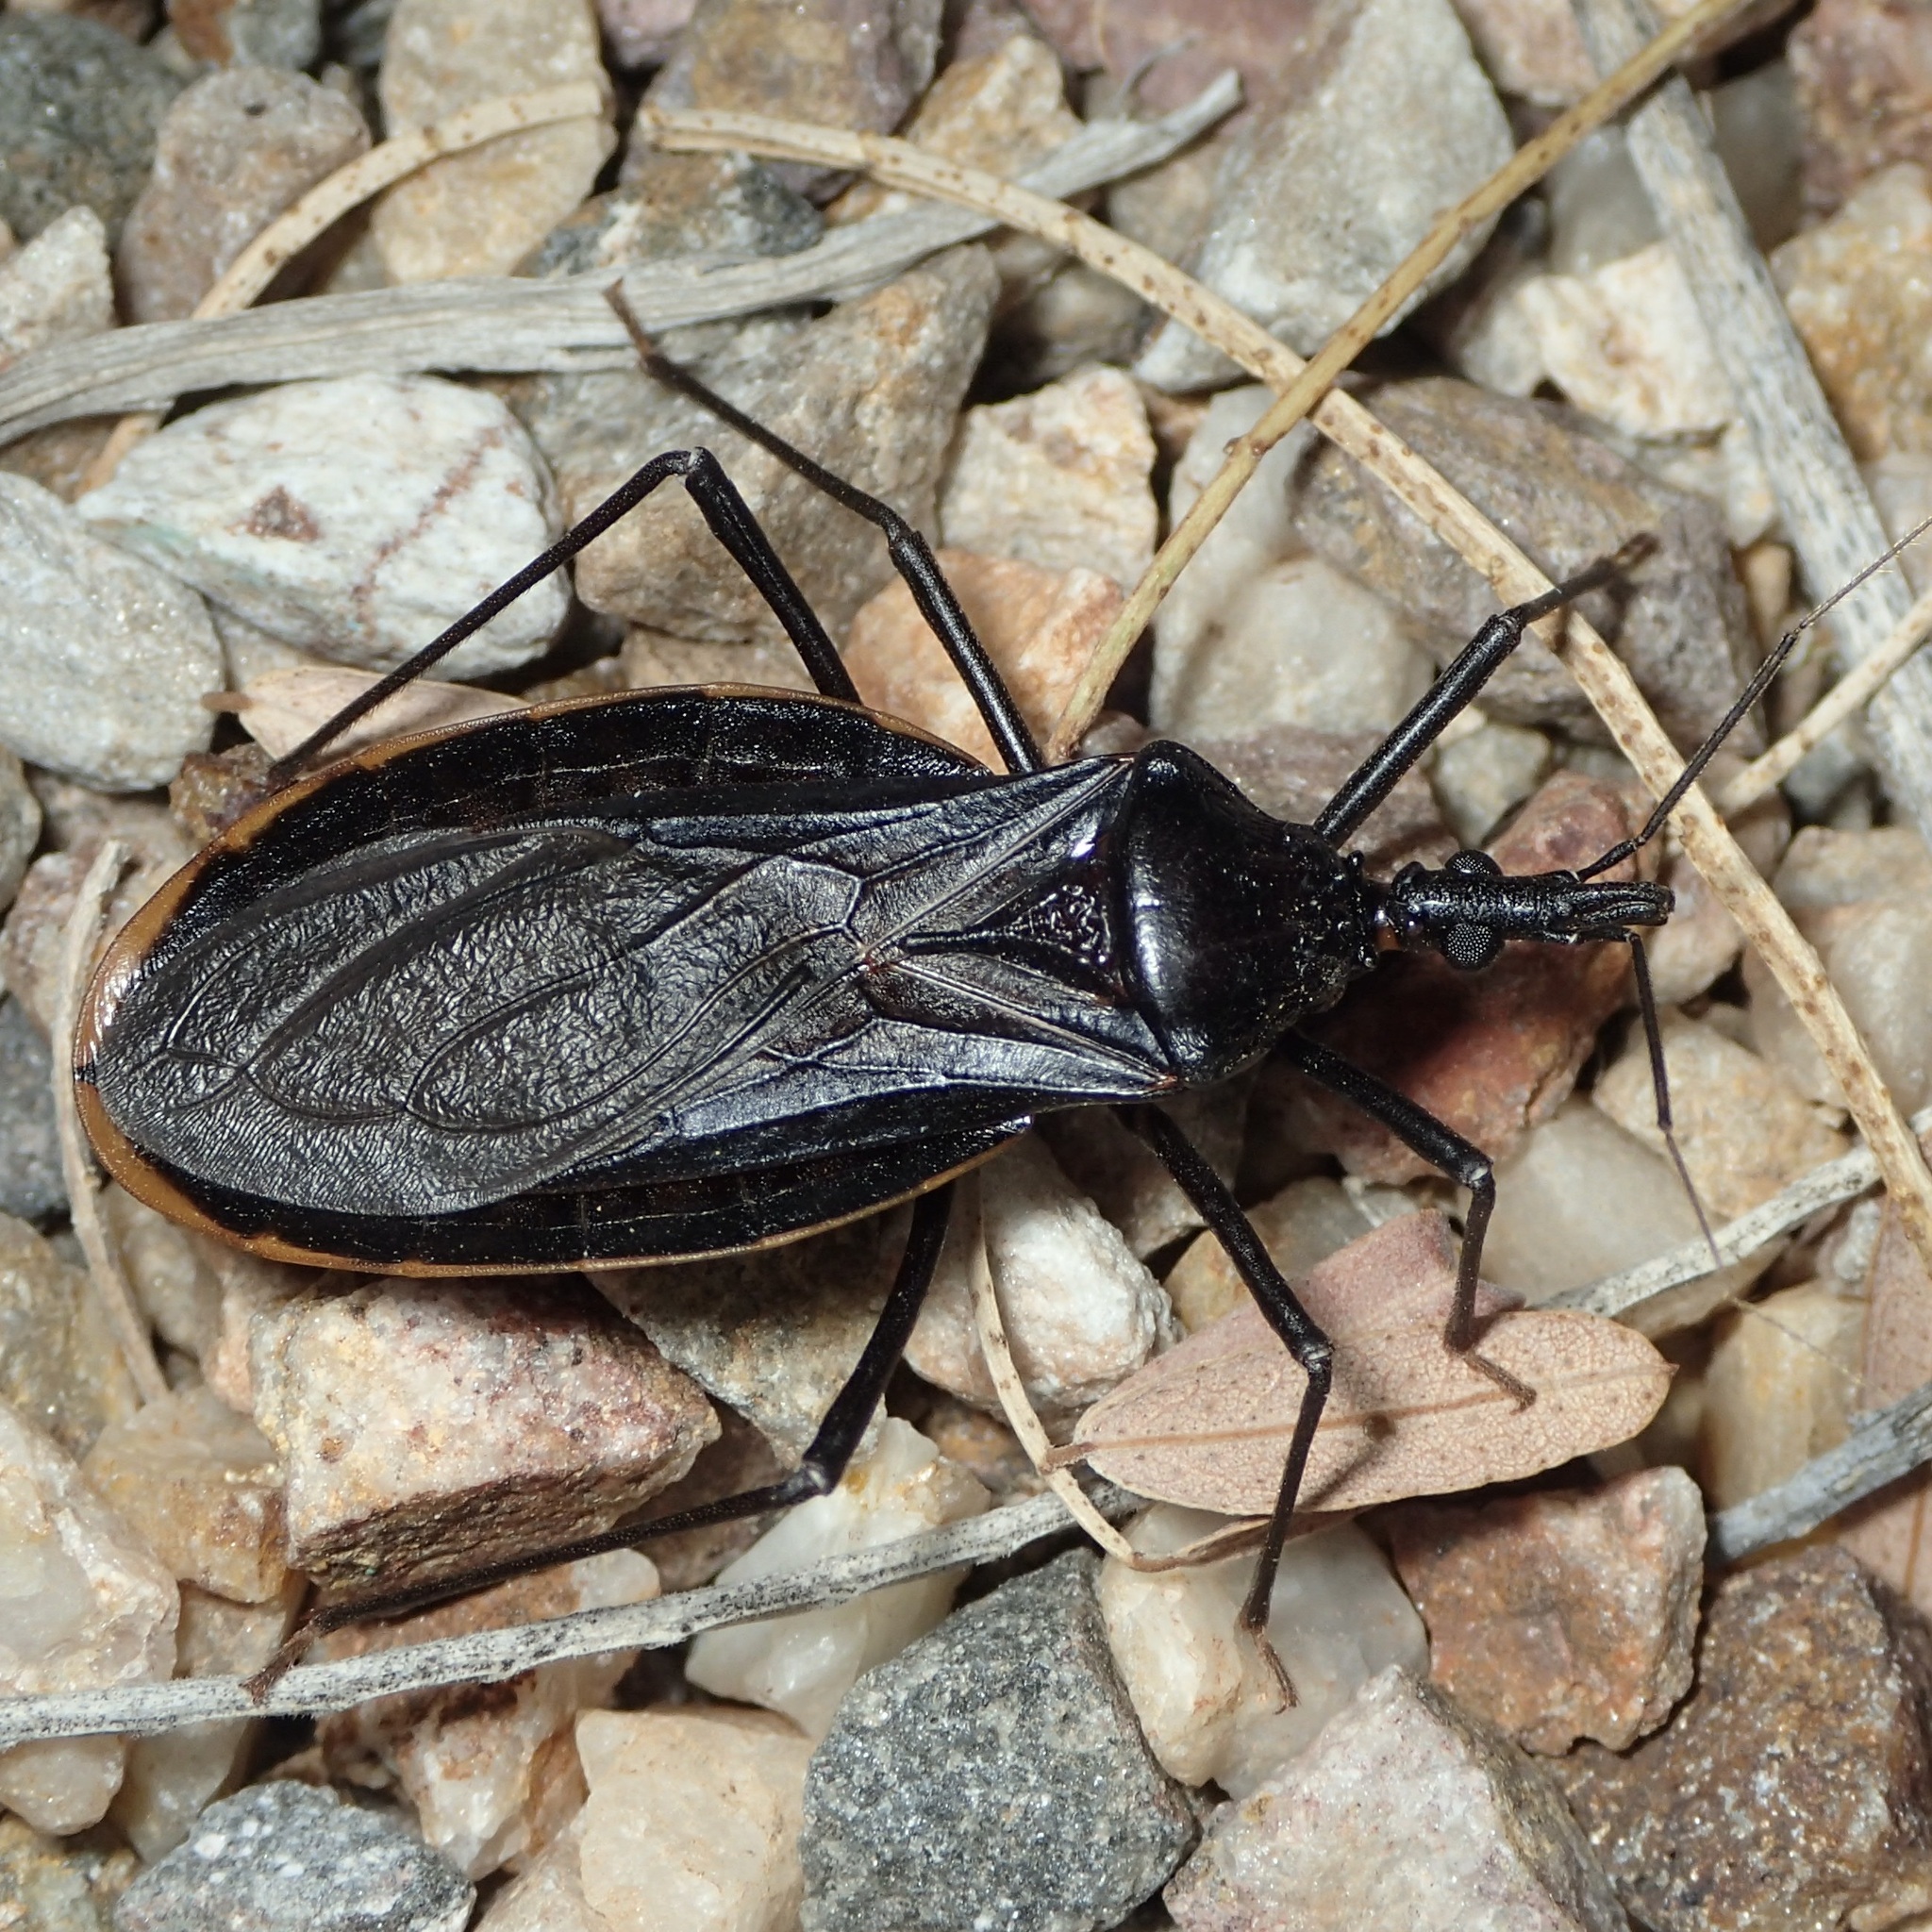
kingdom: Animalia
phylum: Arthropoda
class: Insecta
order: Hemiptera
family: Reduviidae
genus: Triatoma
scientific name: Triatoma recurva
